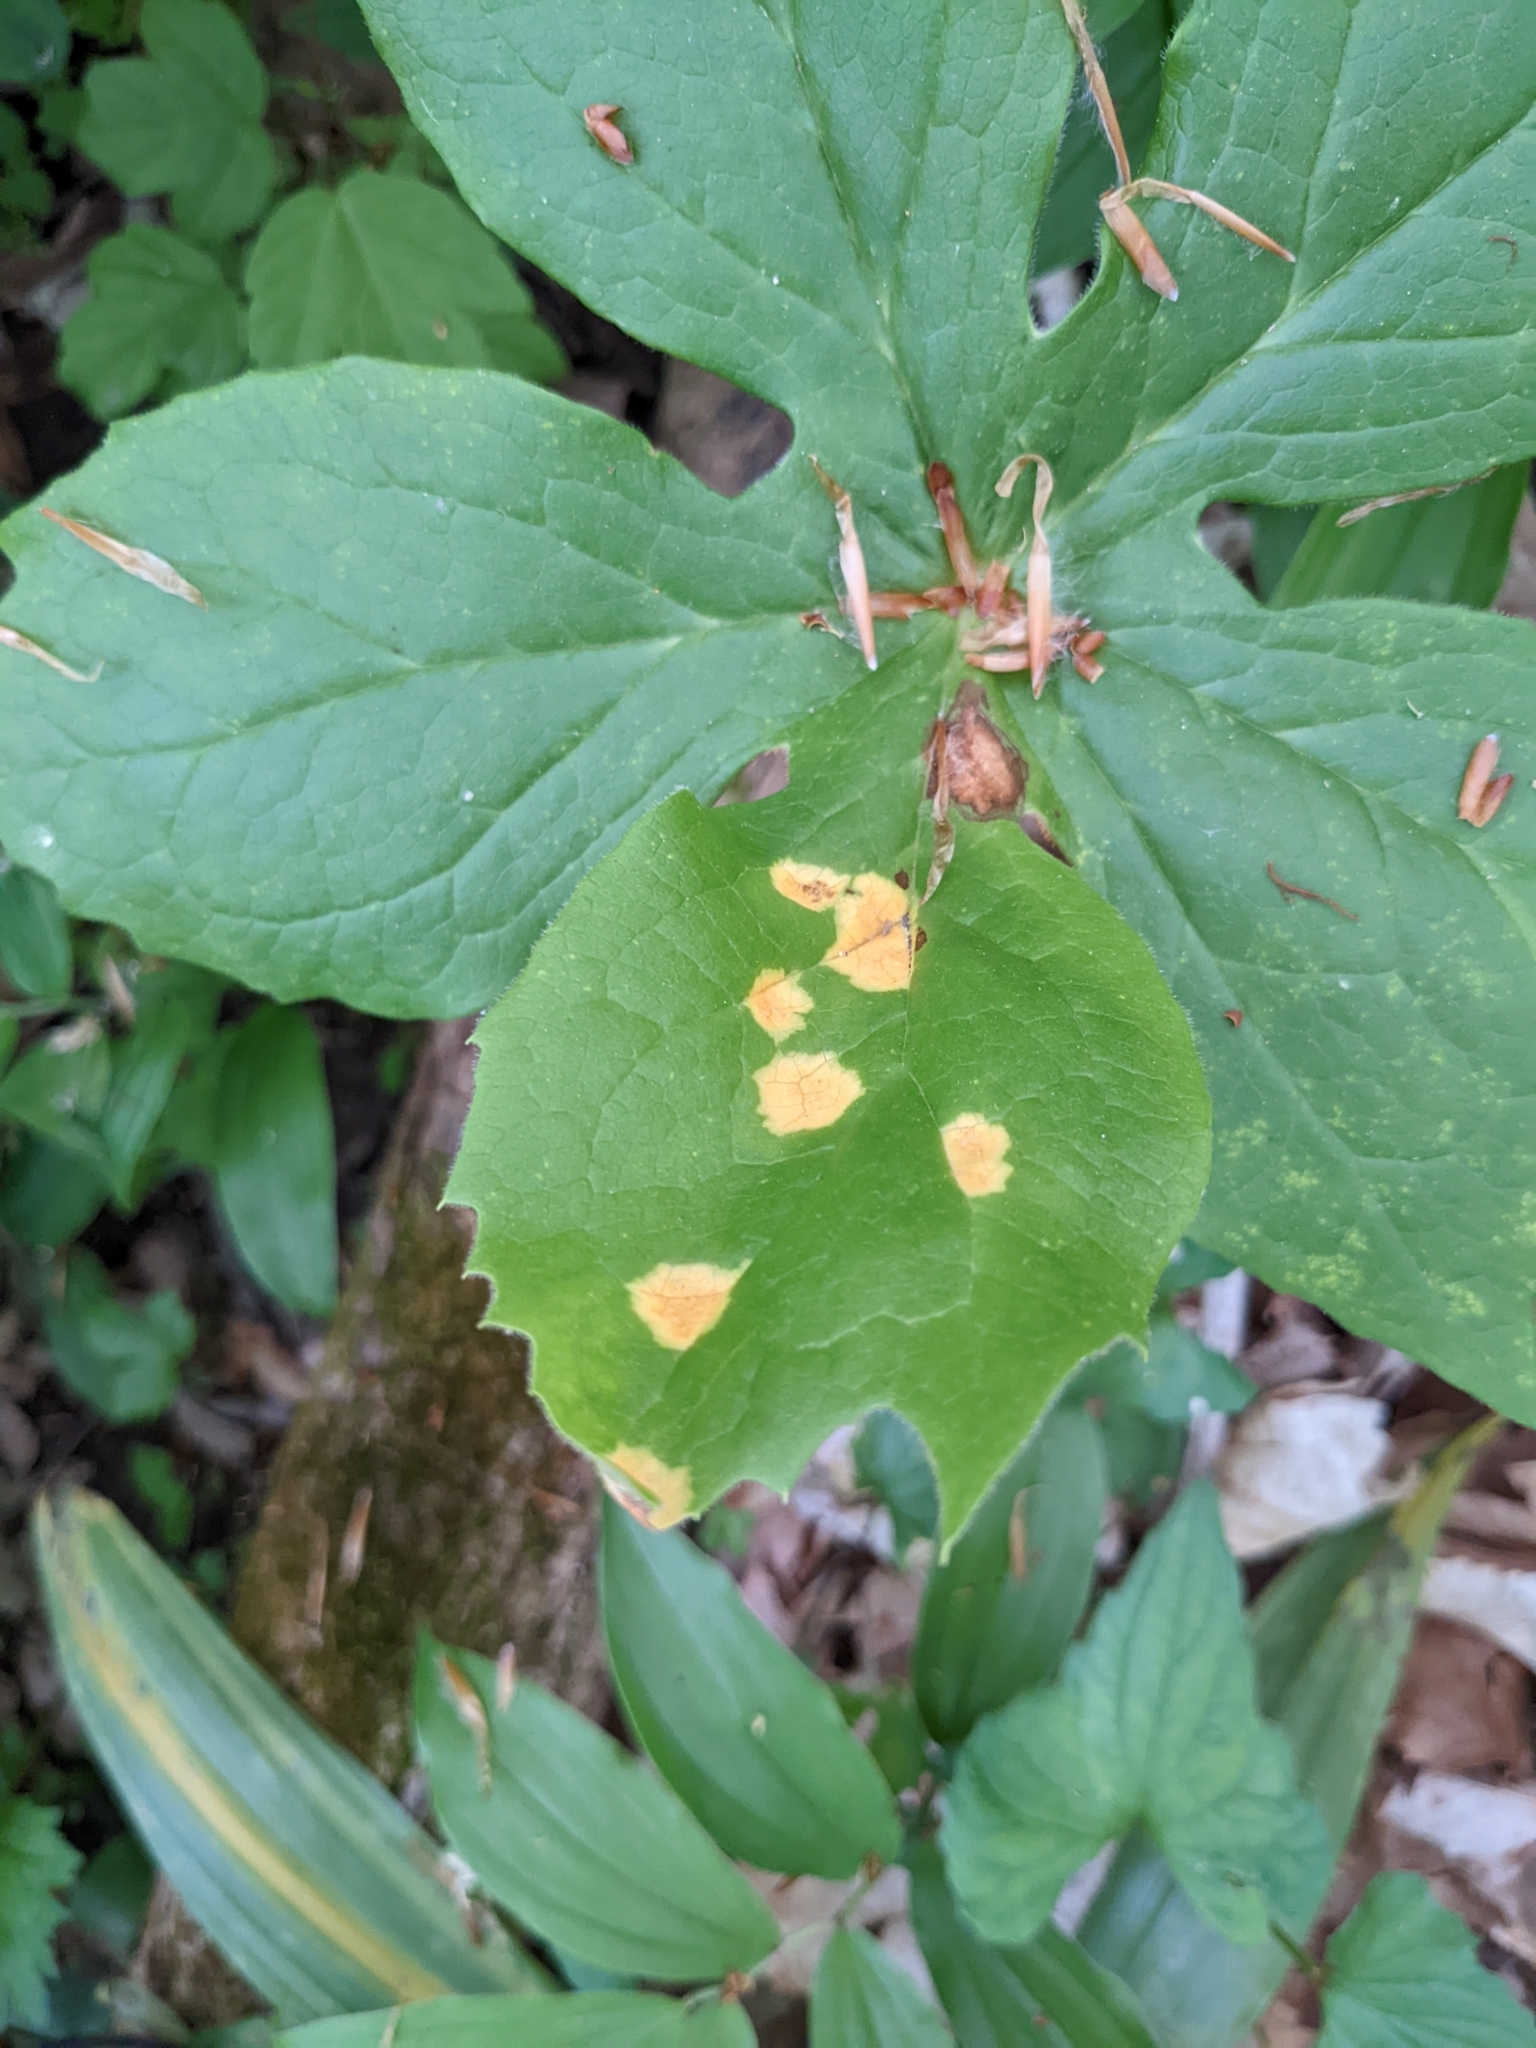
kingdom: Fungi
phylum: Basidiomycota
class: Pucciniomycetes
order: Pucciniales
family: Pucciniaceae
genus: Puccinia
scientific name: Puccinia podophylli
